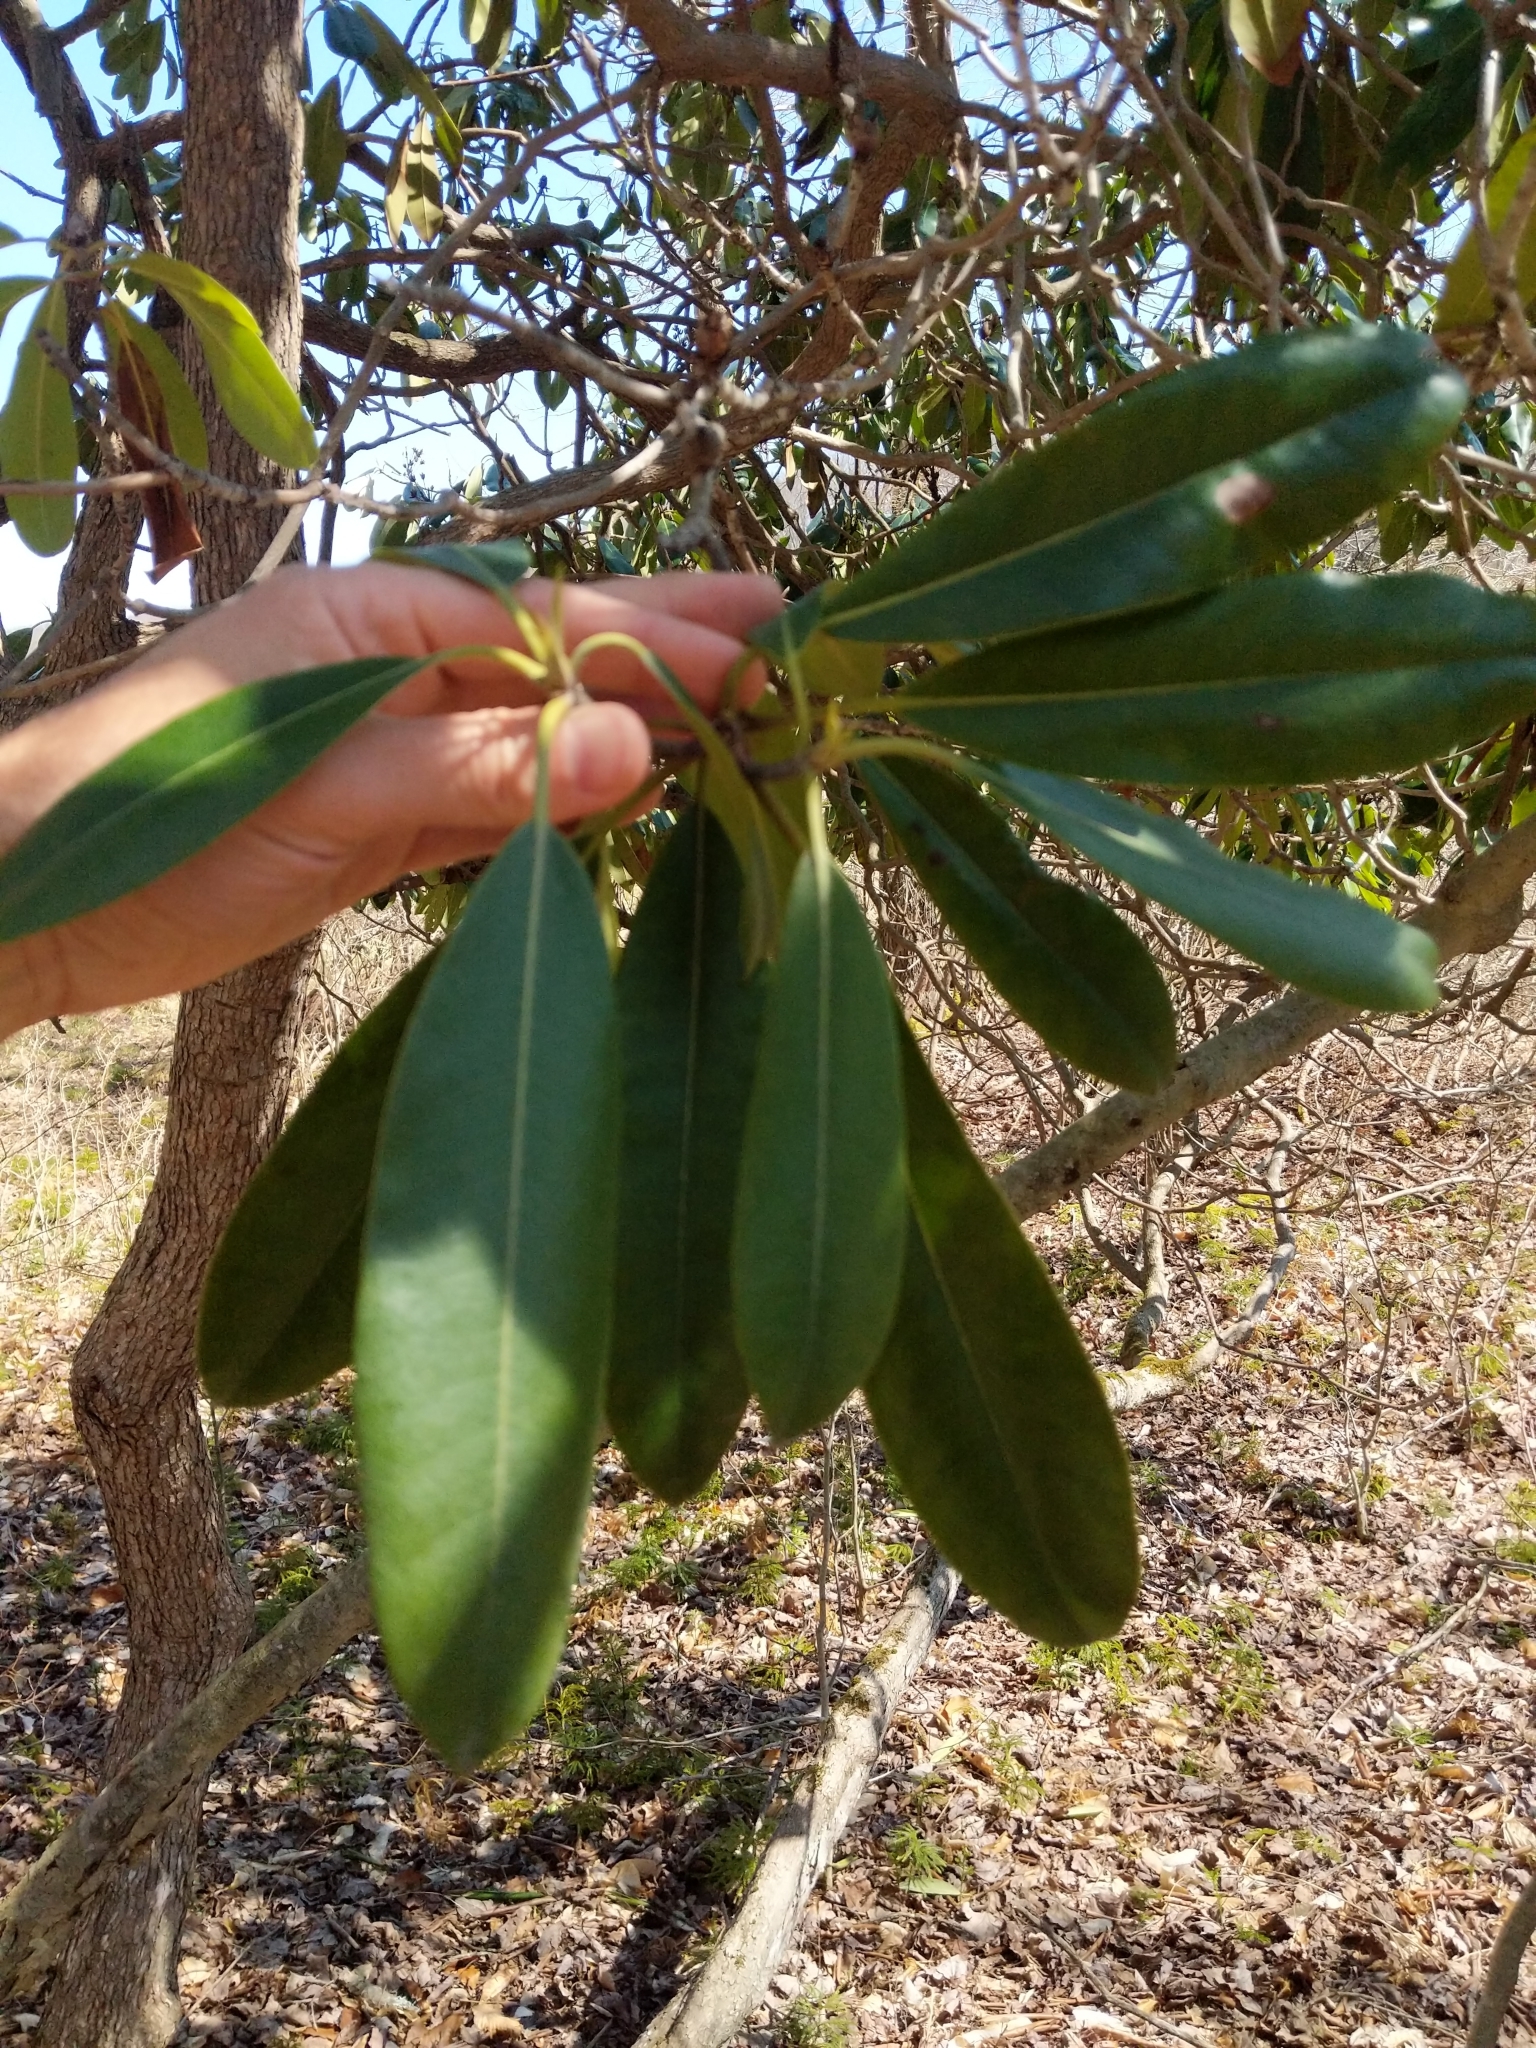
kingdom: Plantae
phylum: Tracheophyta
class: Magnoliopsida
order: Ericales
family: Ericaceae
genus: Rhododendron
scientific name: Rhododendron maximum
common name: Great rhododendron
